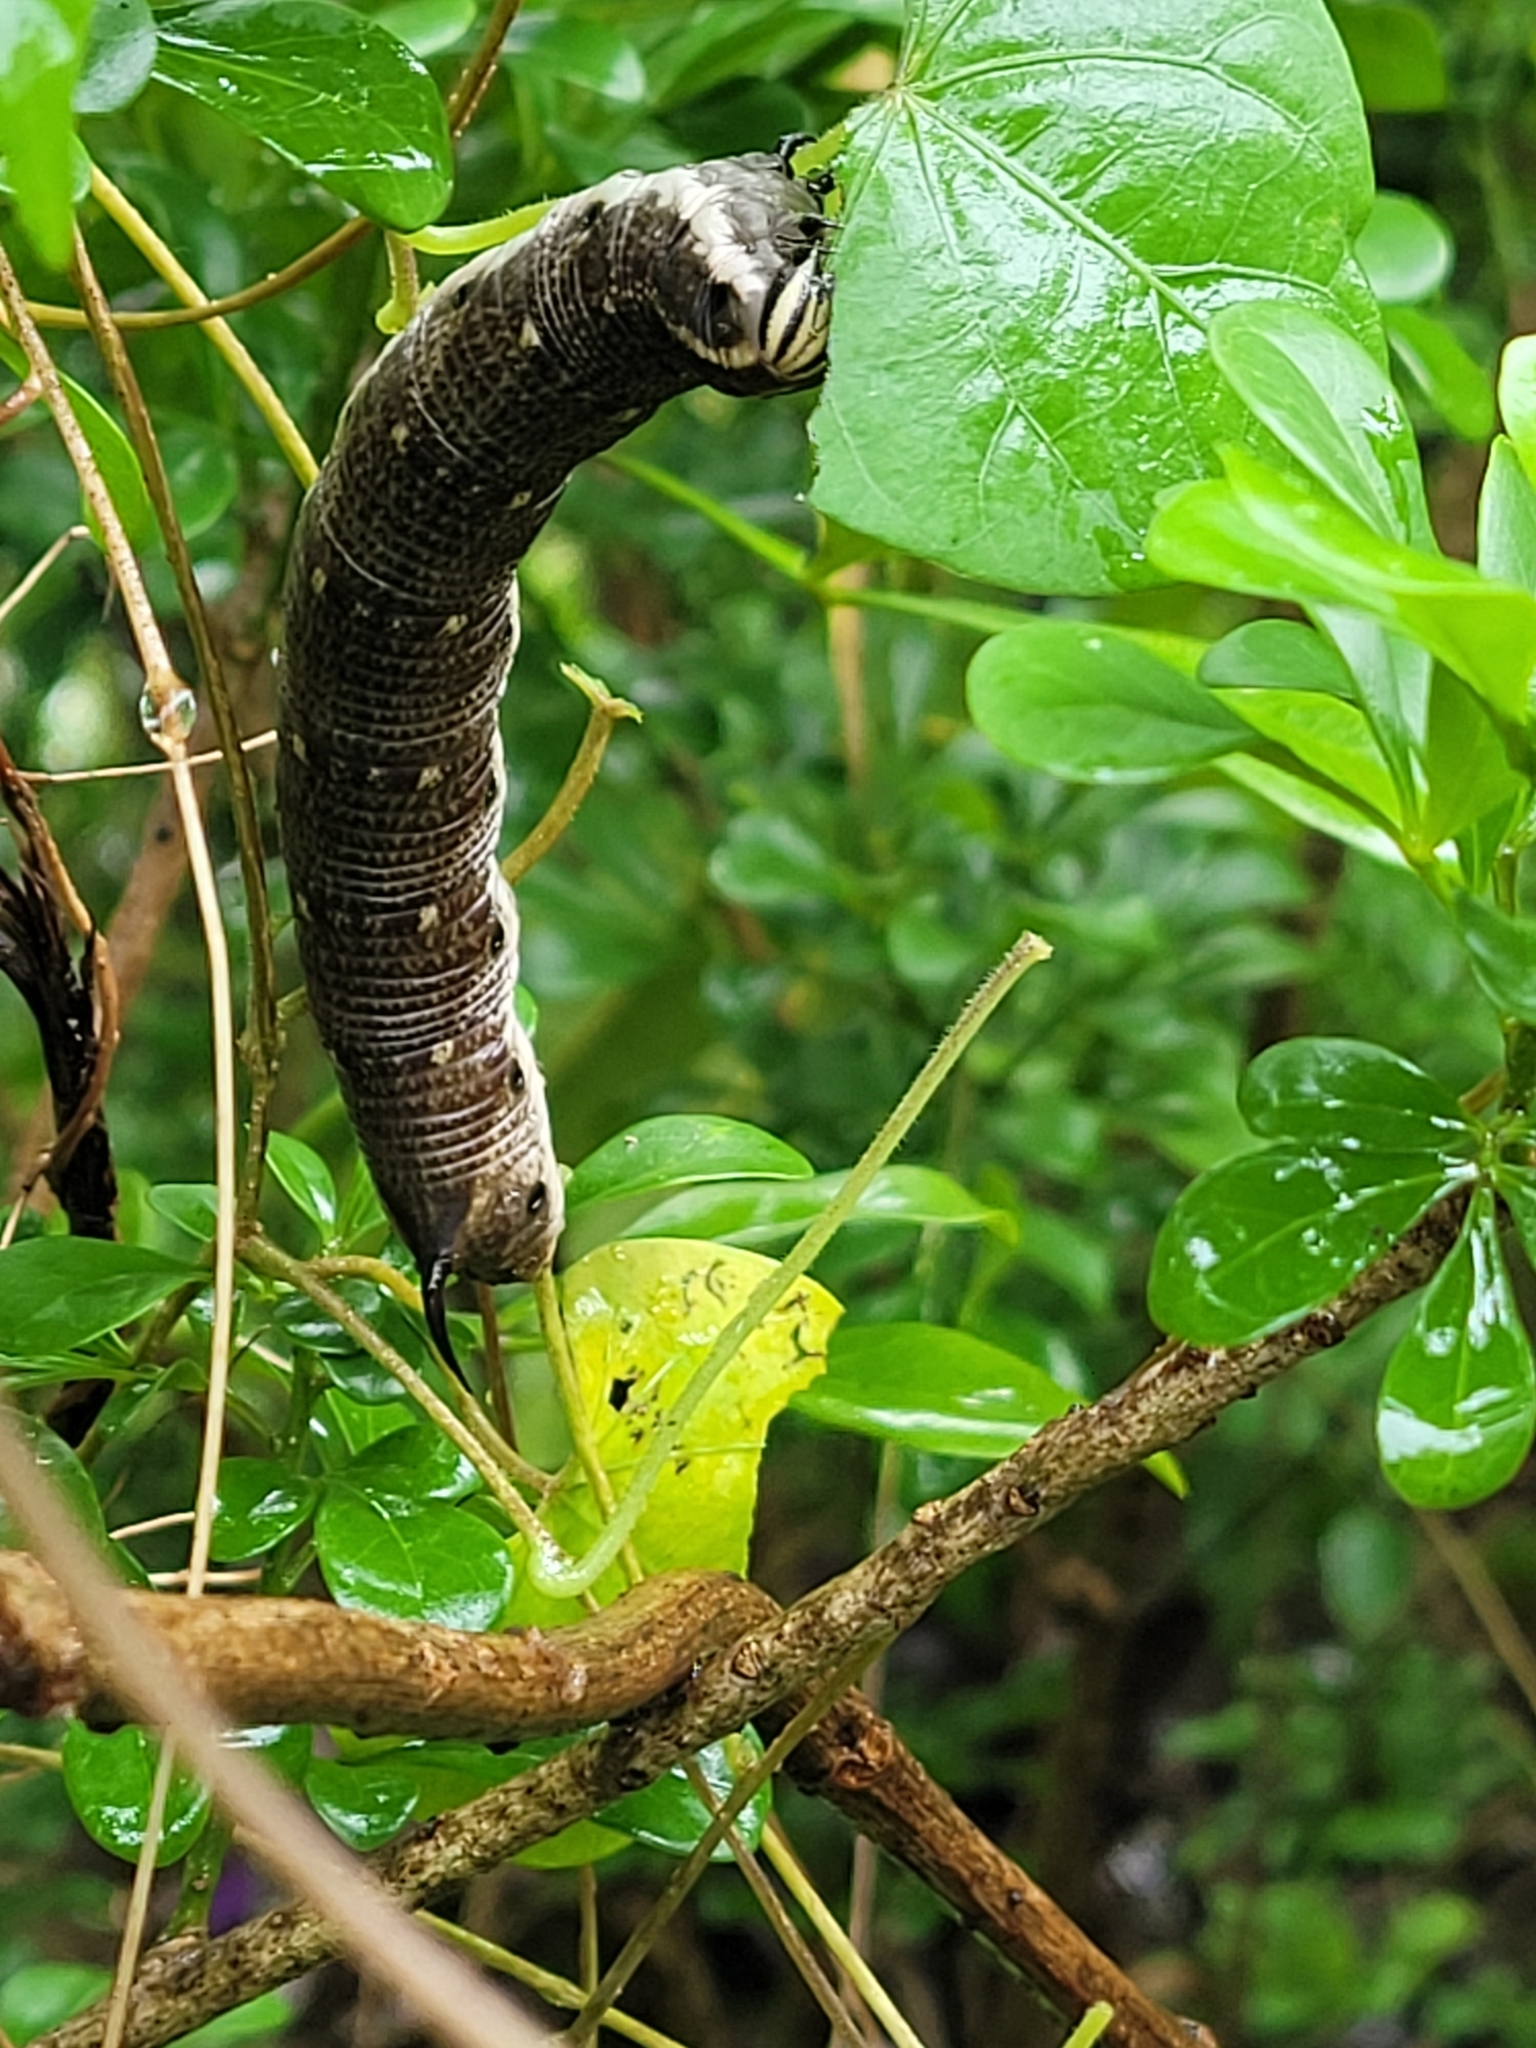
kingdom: Animalia
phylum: Arthropoda
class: Insecta
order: Lepidoptera
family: Sphingidae
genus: Agrius
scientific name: Agrius convolvuli
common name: Convolvulus hawkmoth
